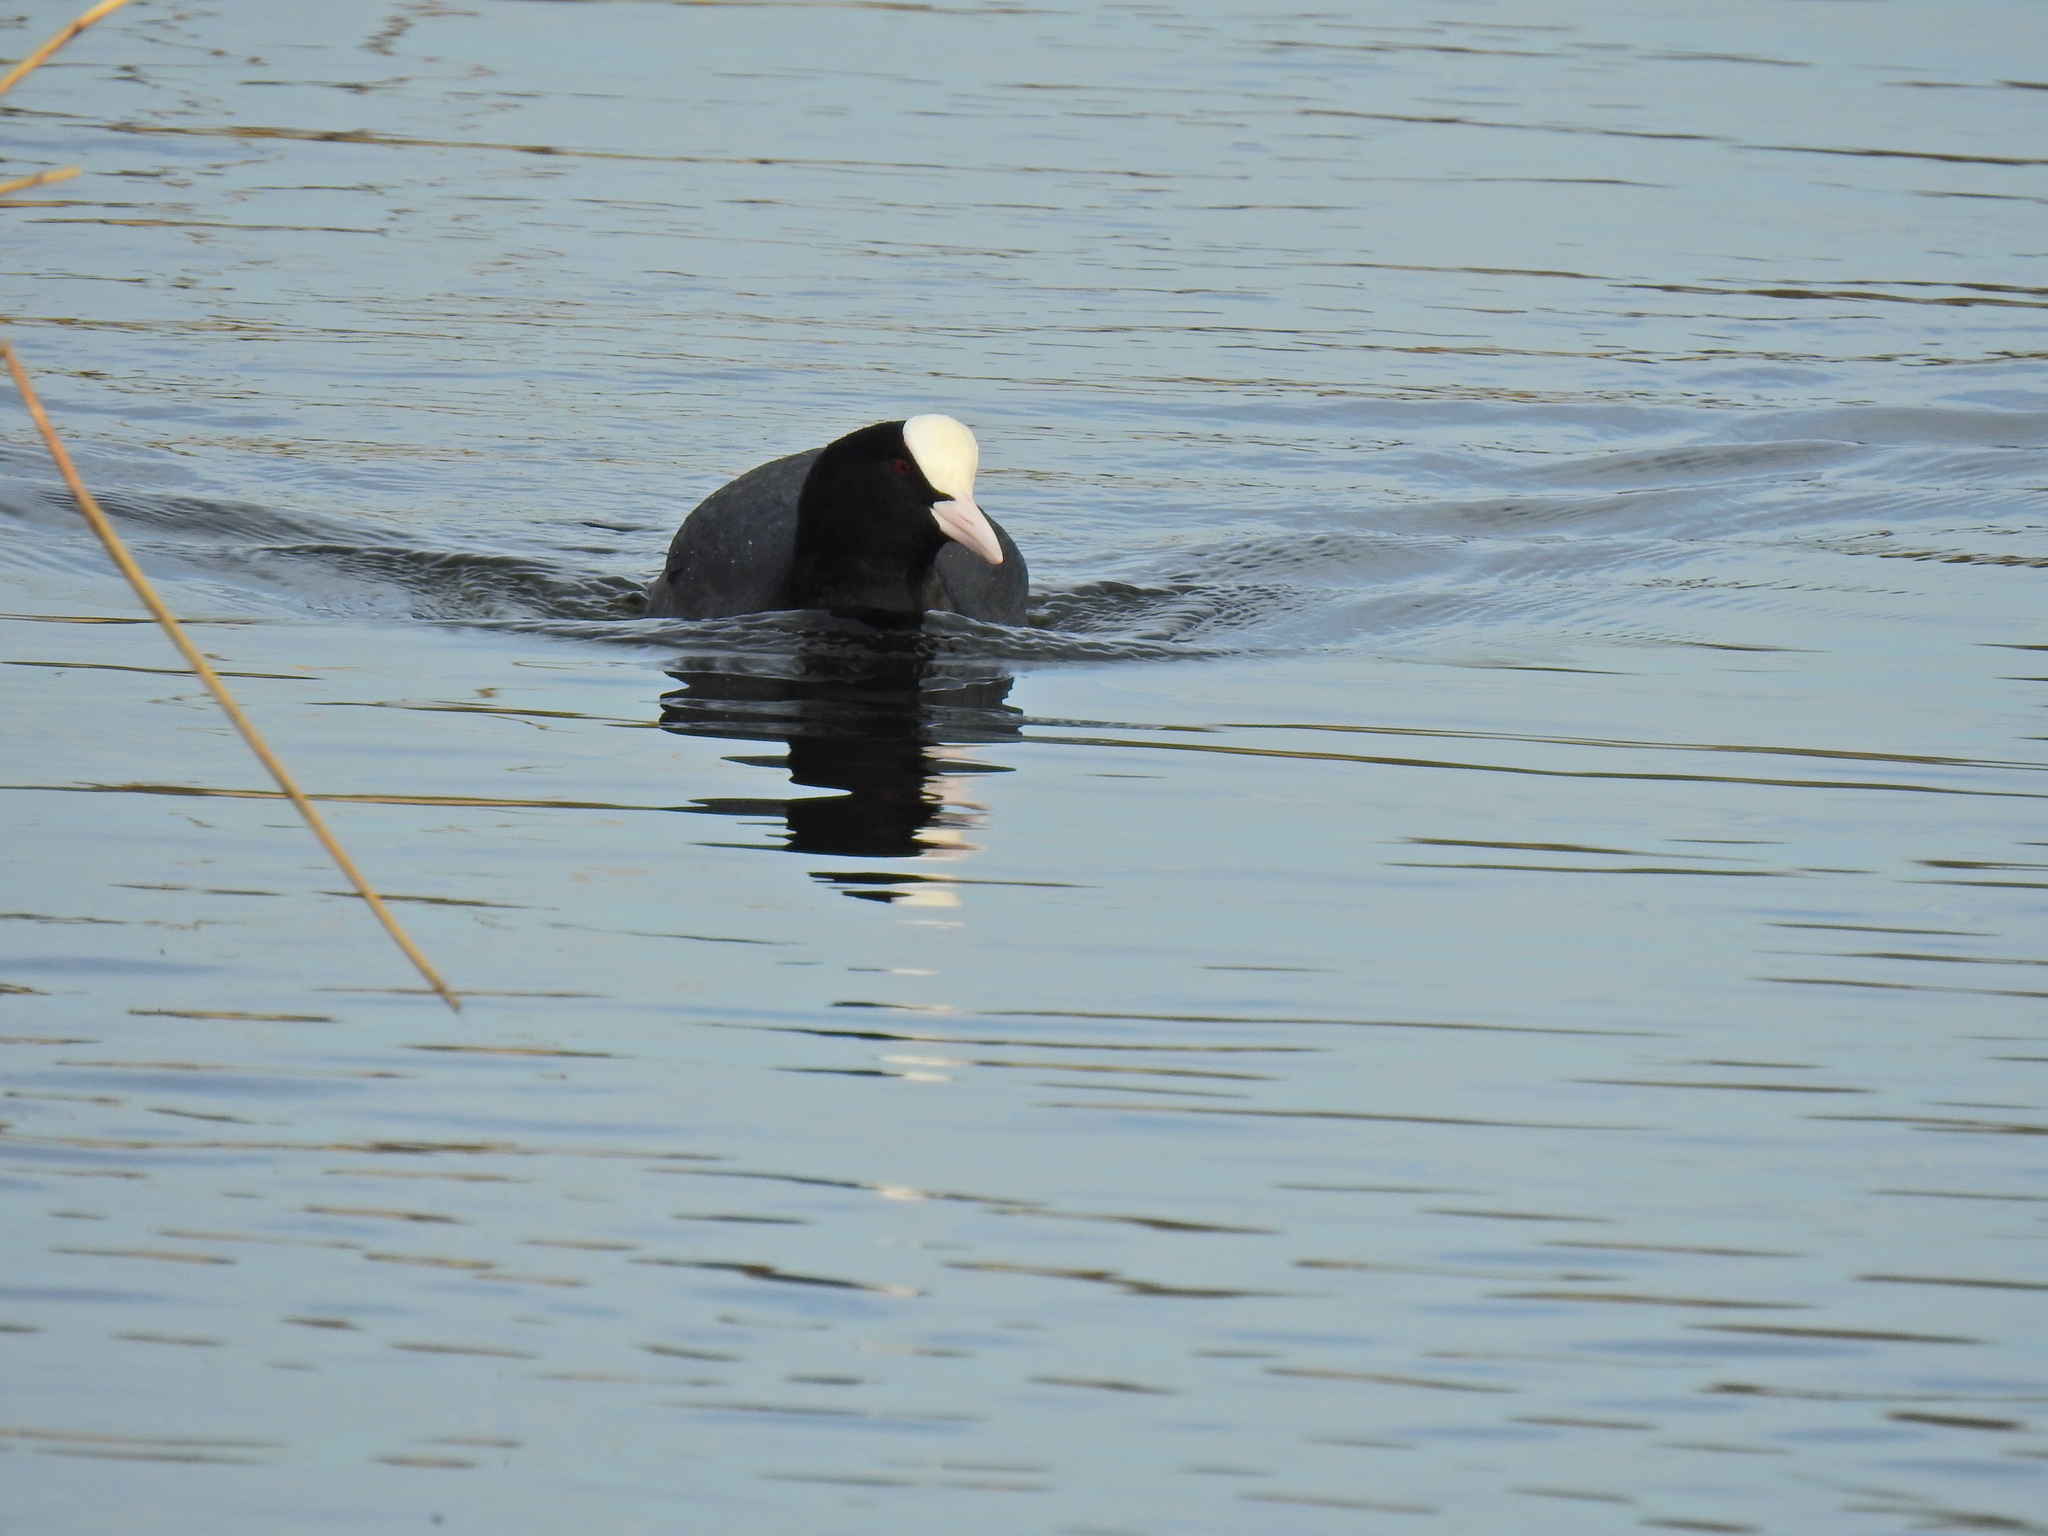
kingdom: Animalia
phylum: Chordata
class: Aves
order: Gruiformes
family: Rallidae
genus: Fulica
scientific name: Fulica atra
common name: Eurasian coot
